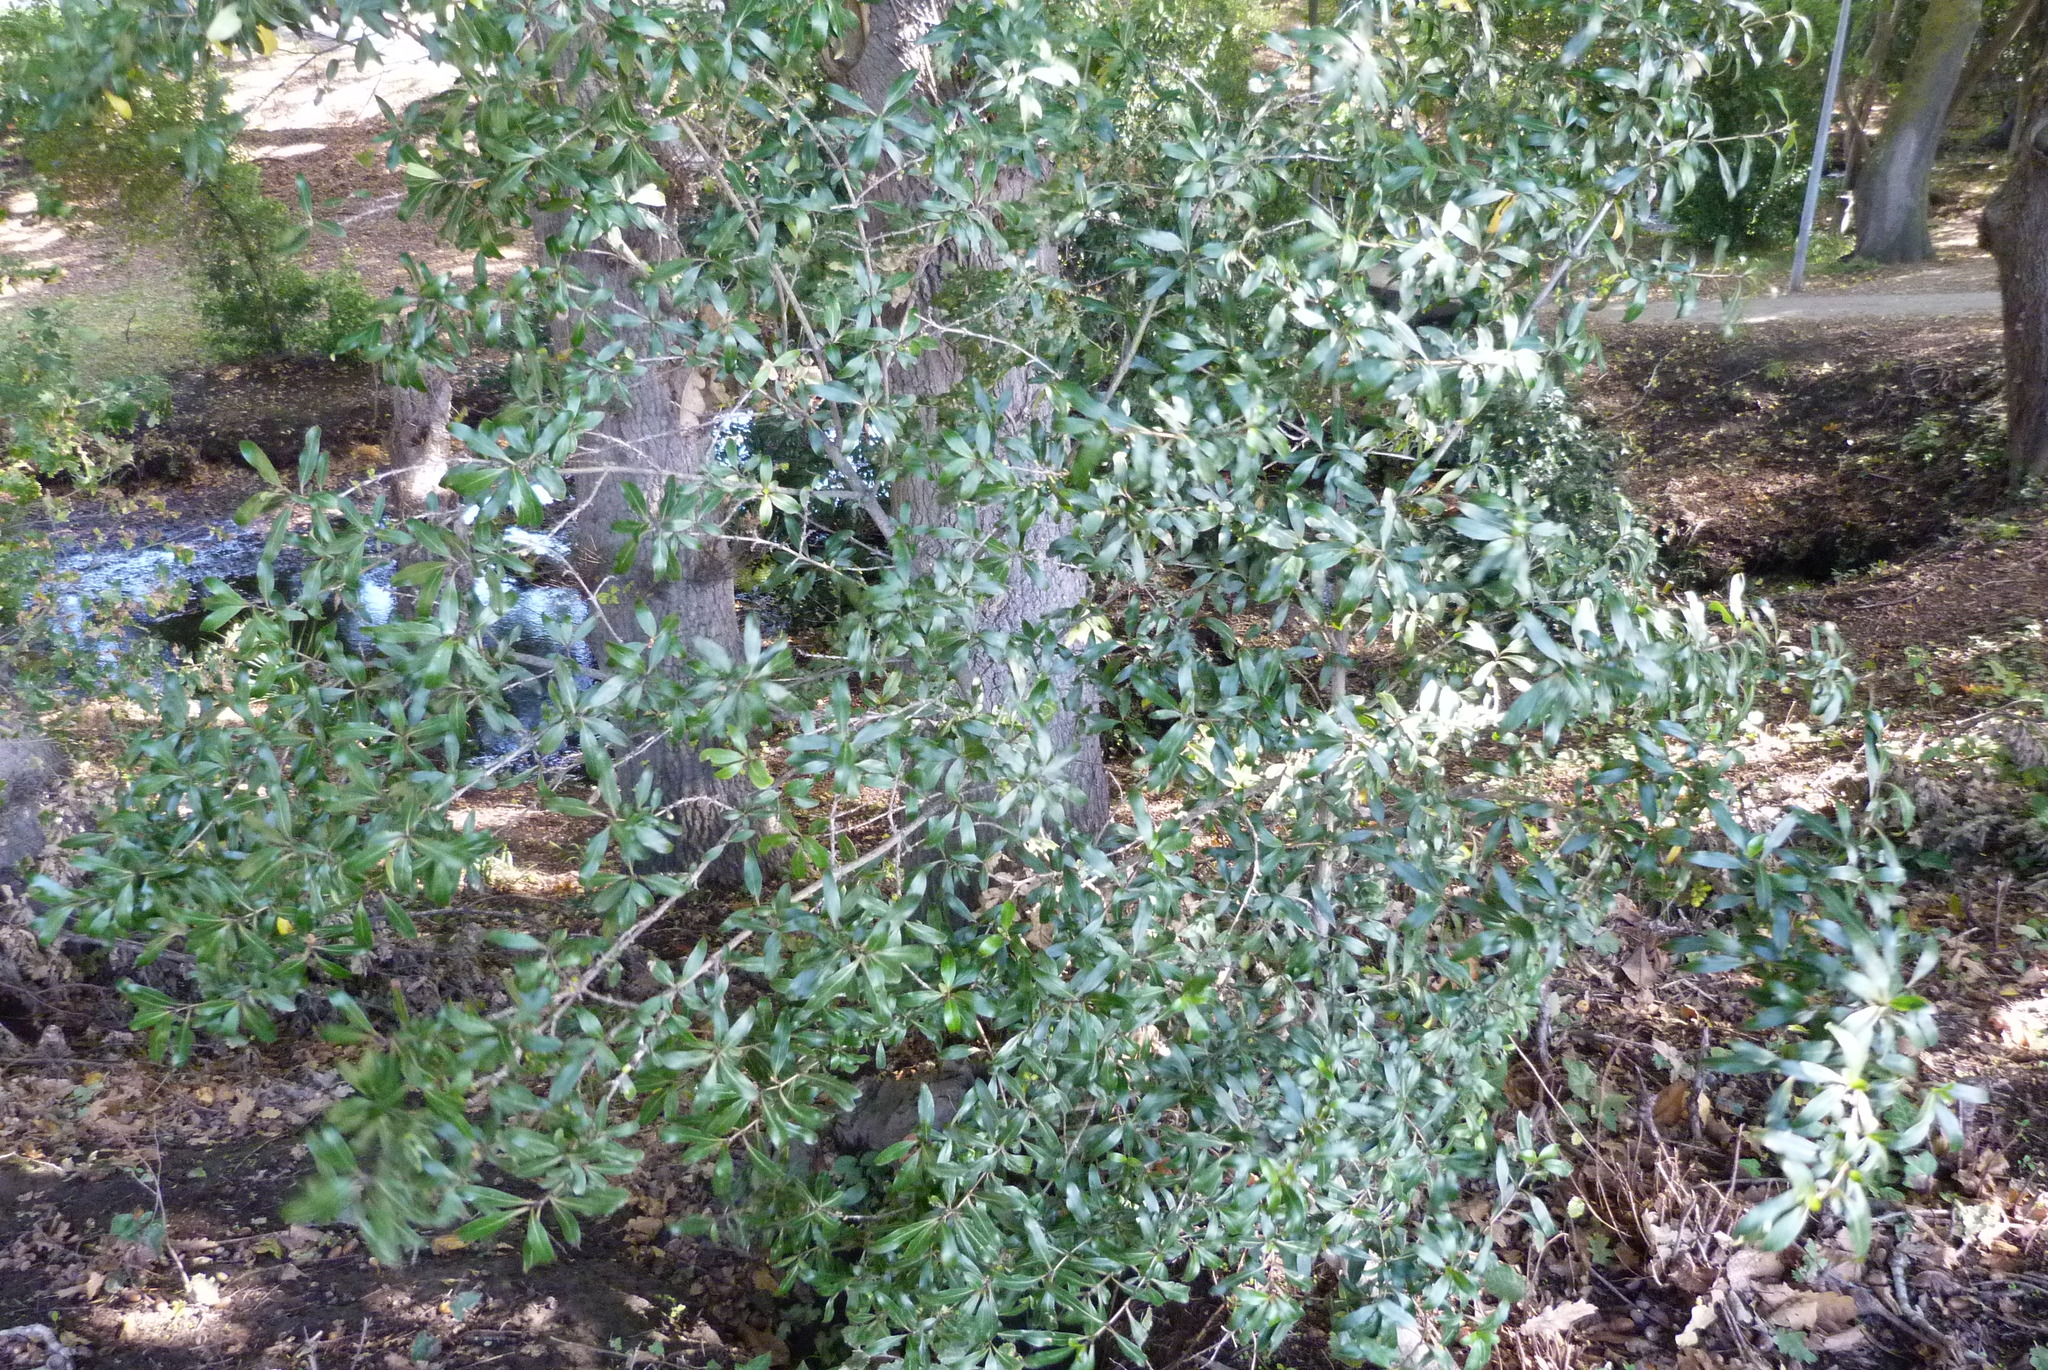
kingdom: Plantae
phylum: Tracheophyta
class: Magnoliopsida
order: Gentianales
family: Rubiaceae
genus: Coprosma
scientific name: Coprosma cunninghamii
